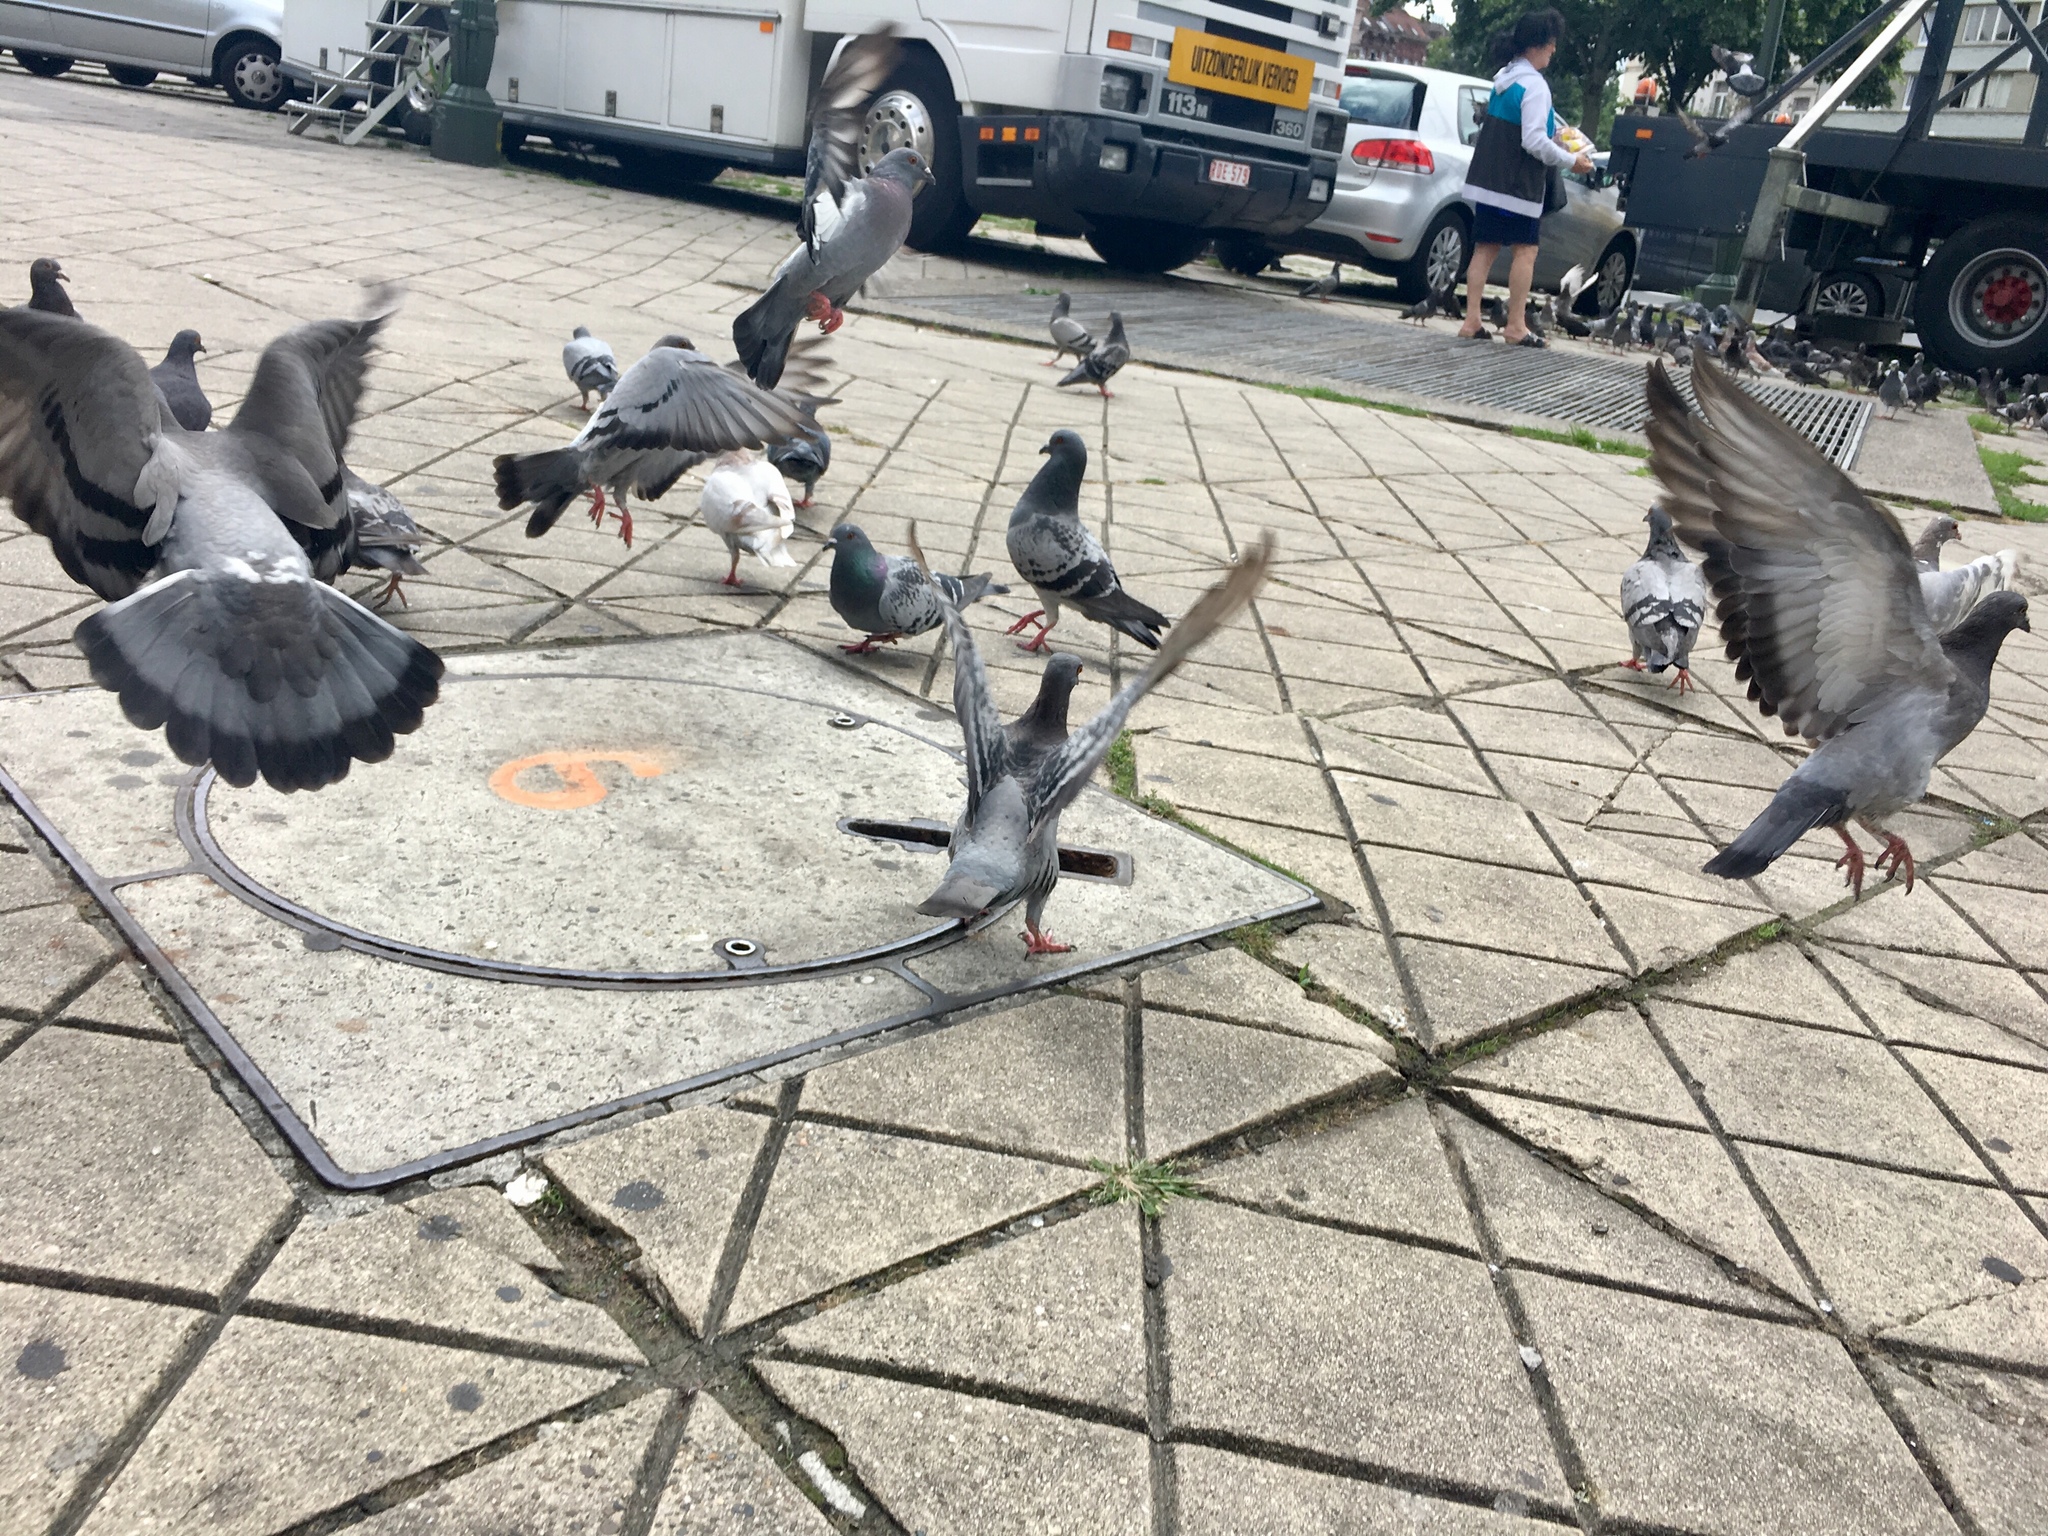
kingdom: Animalia
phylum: Chordata
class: Aves
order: Columbiformes
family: Columbidae
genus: Columba
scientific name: Columba livia
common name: Rock pigeon
